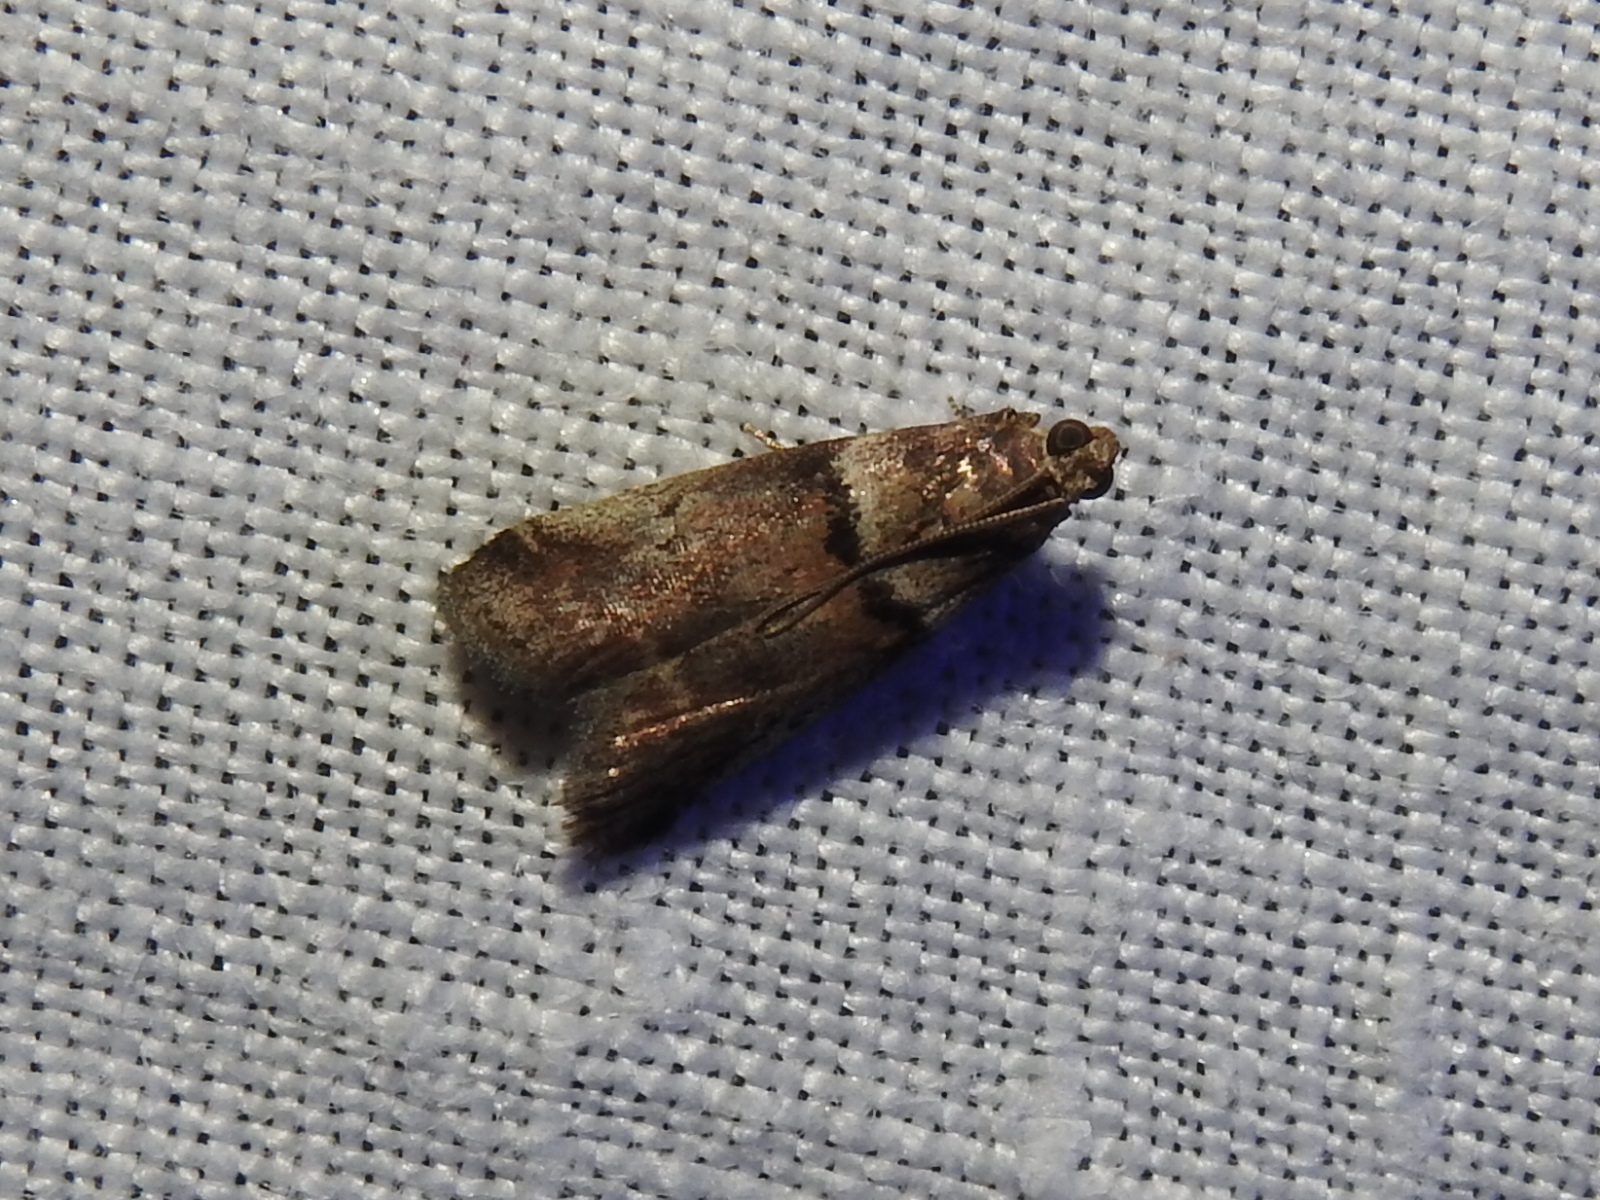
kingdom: Animalia
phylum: Arthropoda
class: Insecta
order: Lepidoptera
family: Pyralidae
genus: Acrobasis
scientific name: Acrobasis consociella
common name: Broad-barred knot-horn
